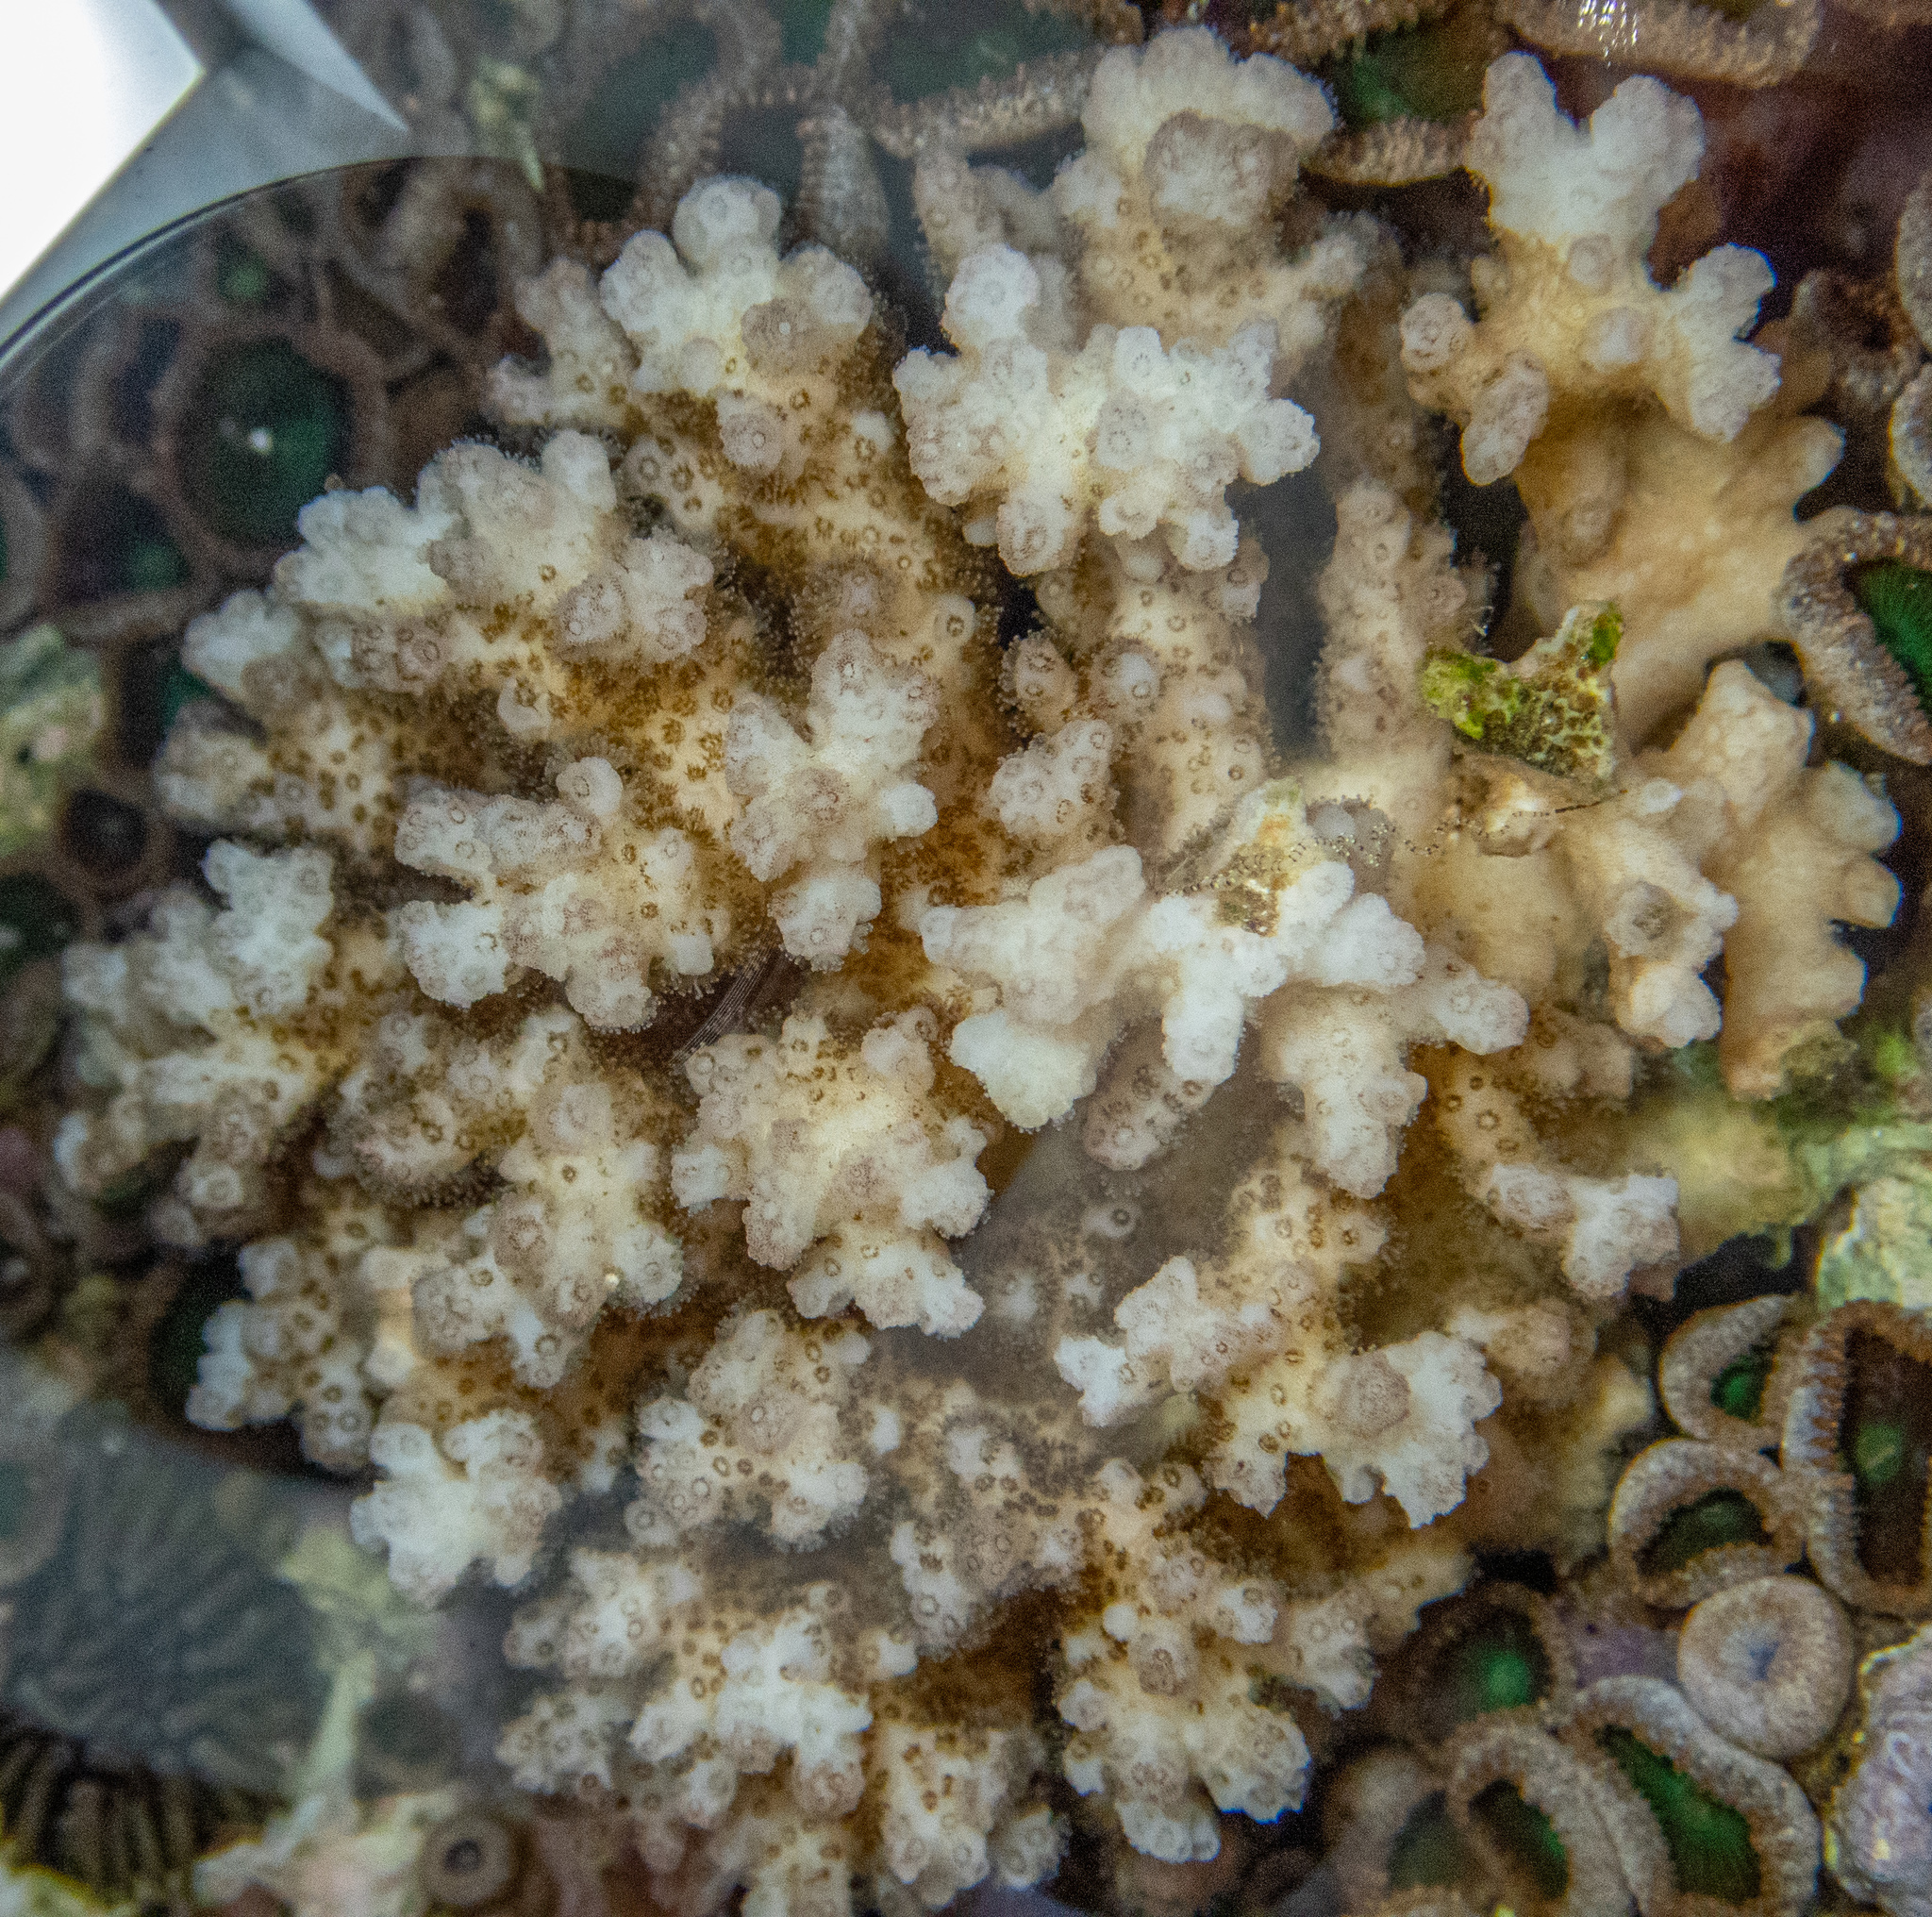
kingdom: Animalia
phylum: Cnidaria
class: Anthozoa
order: Scleractinia
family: Pocilloporidae
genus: Pocillopora
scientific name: Pocillopora damicornis
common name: Cauliflower coral
